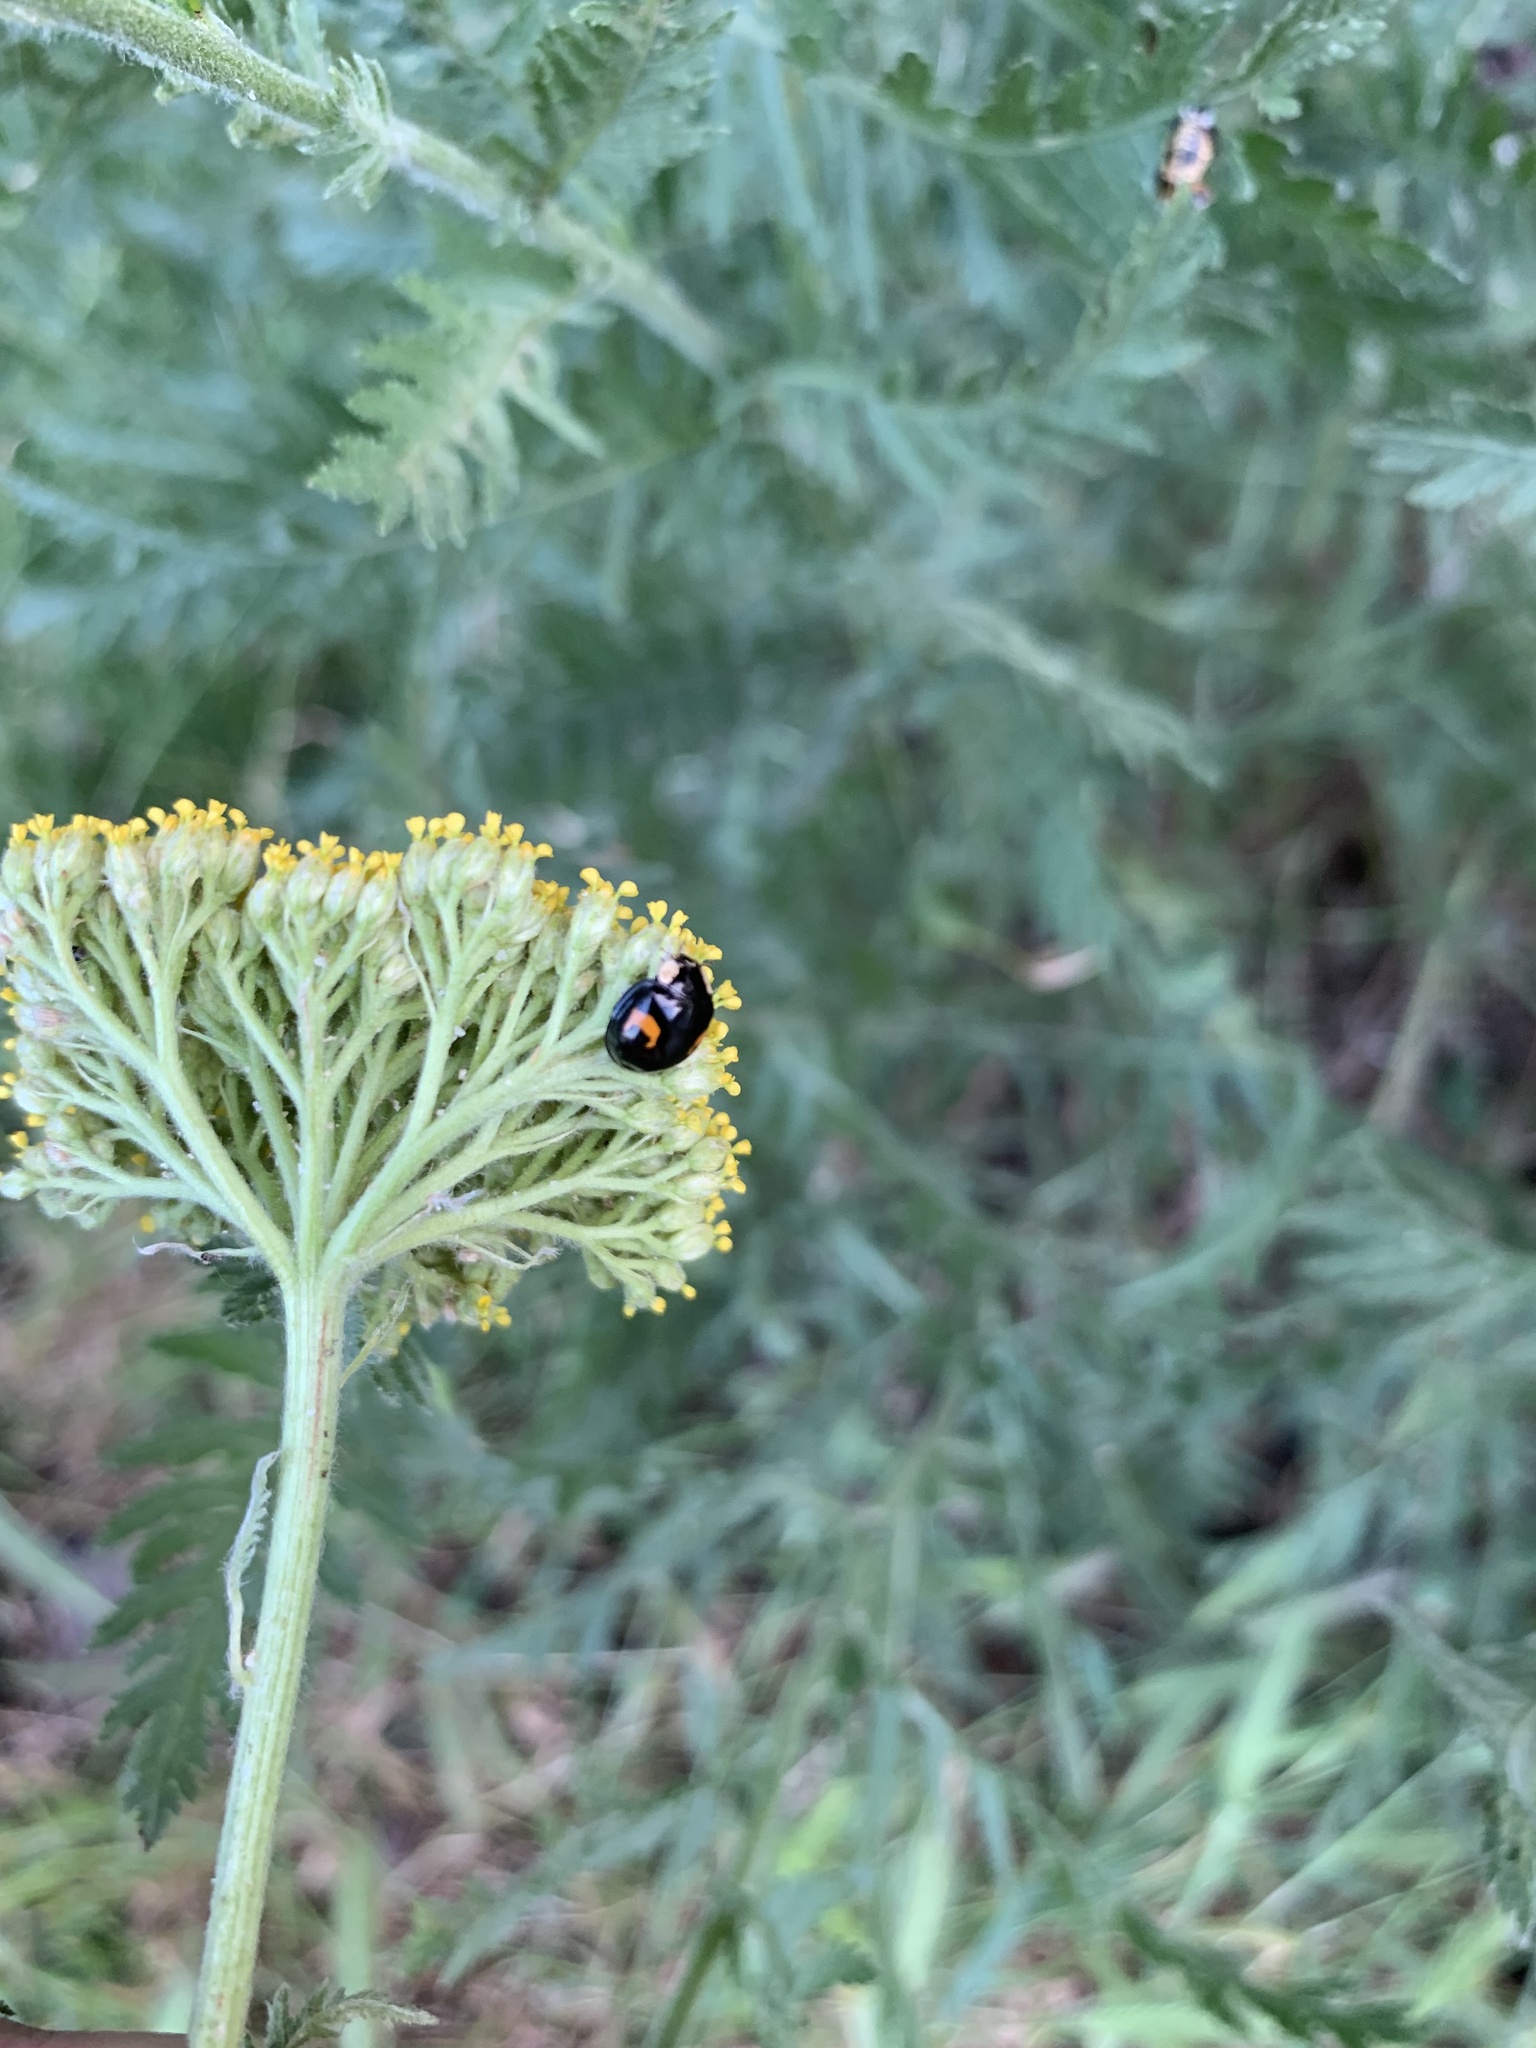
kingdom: Animalia
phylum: Arthropoda
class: Insecta
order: Coleoptera
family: Coccinellidae
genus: Harmonia
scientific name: Harmonia axyridis
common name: Harlequin ladybird
